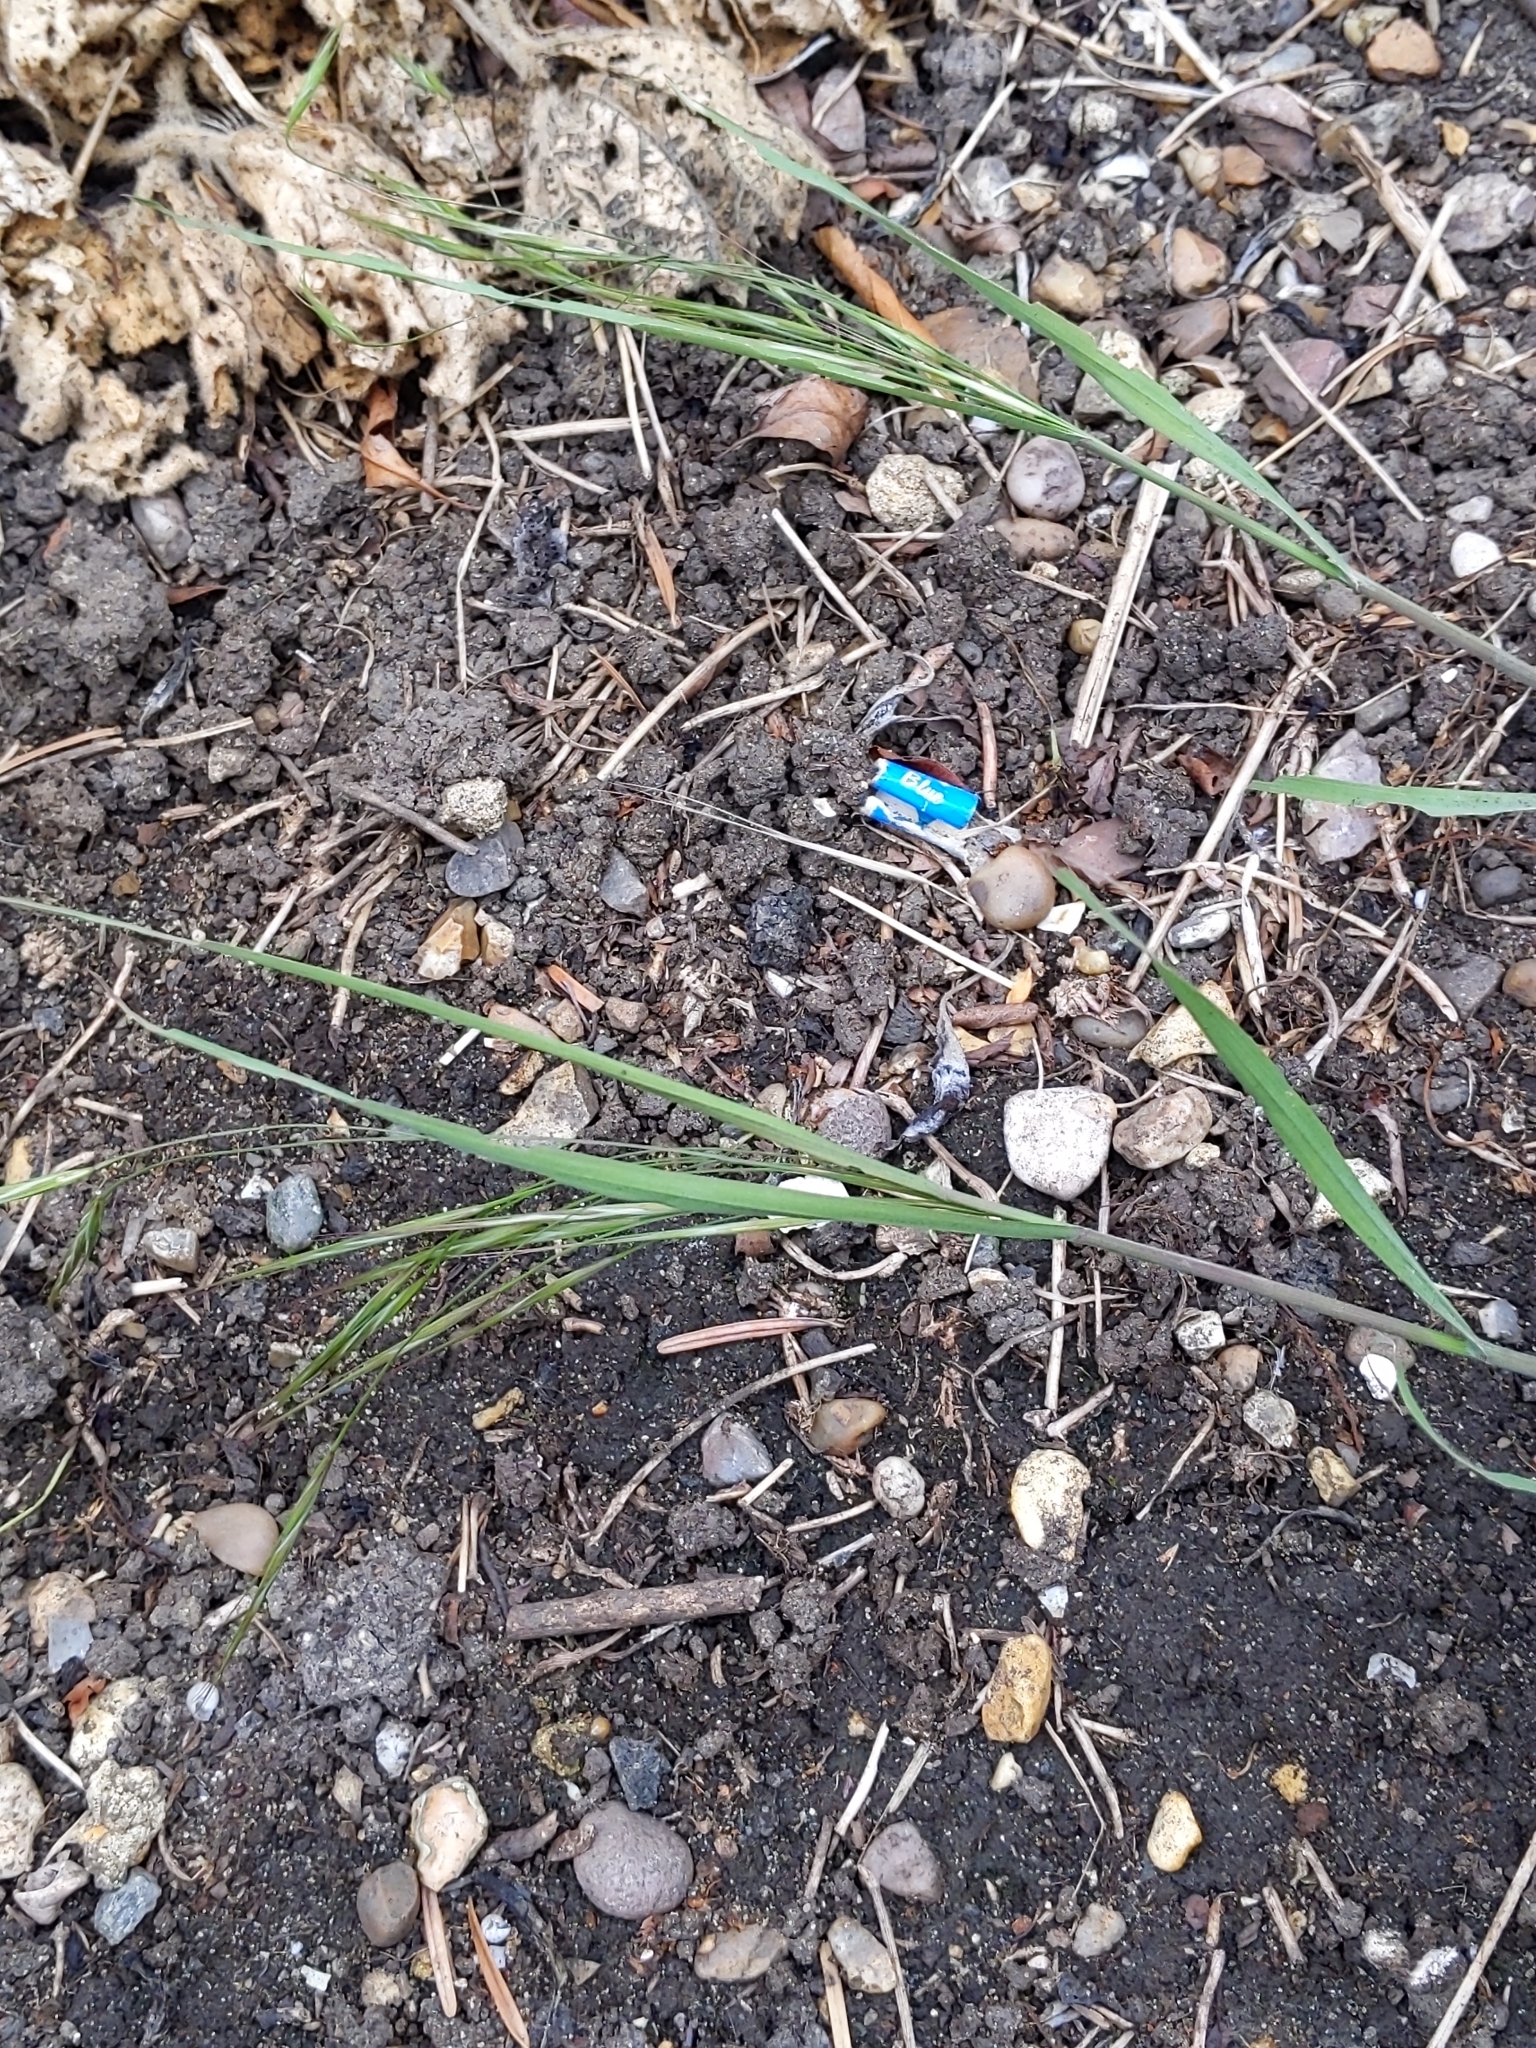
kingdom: Plantae
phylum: Tracheophyta
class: Liliopsida
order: Poales
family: Poaceae
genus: Bromus
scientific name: Bromus sterilis
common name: Poverty brome
